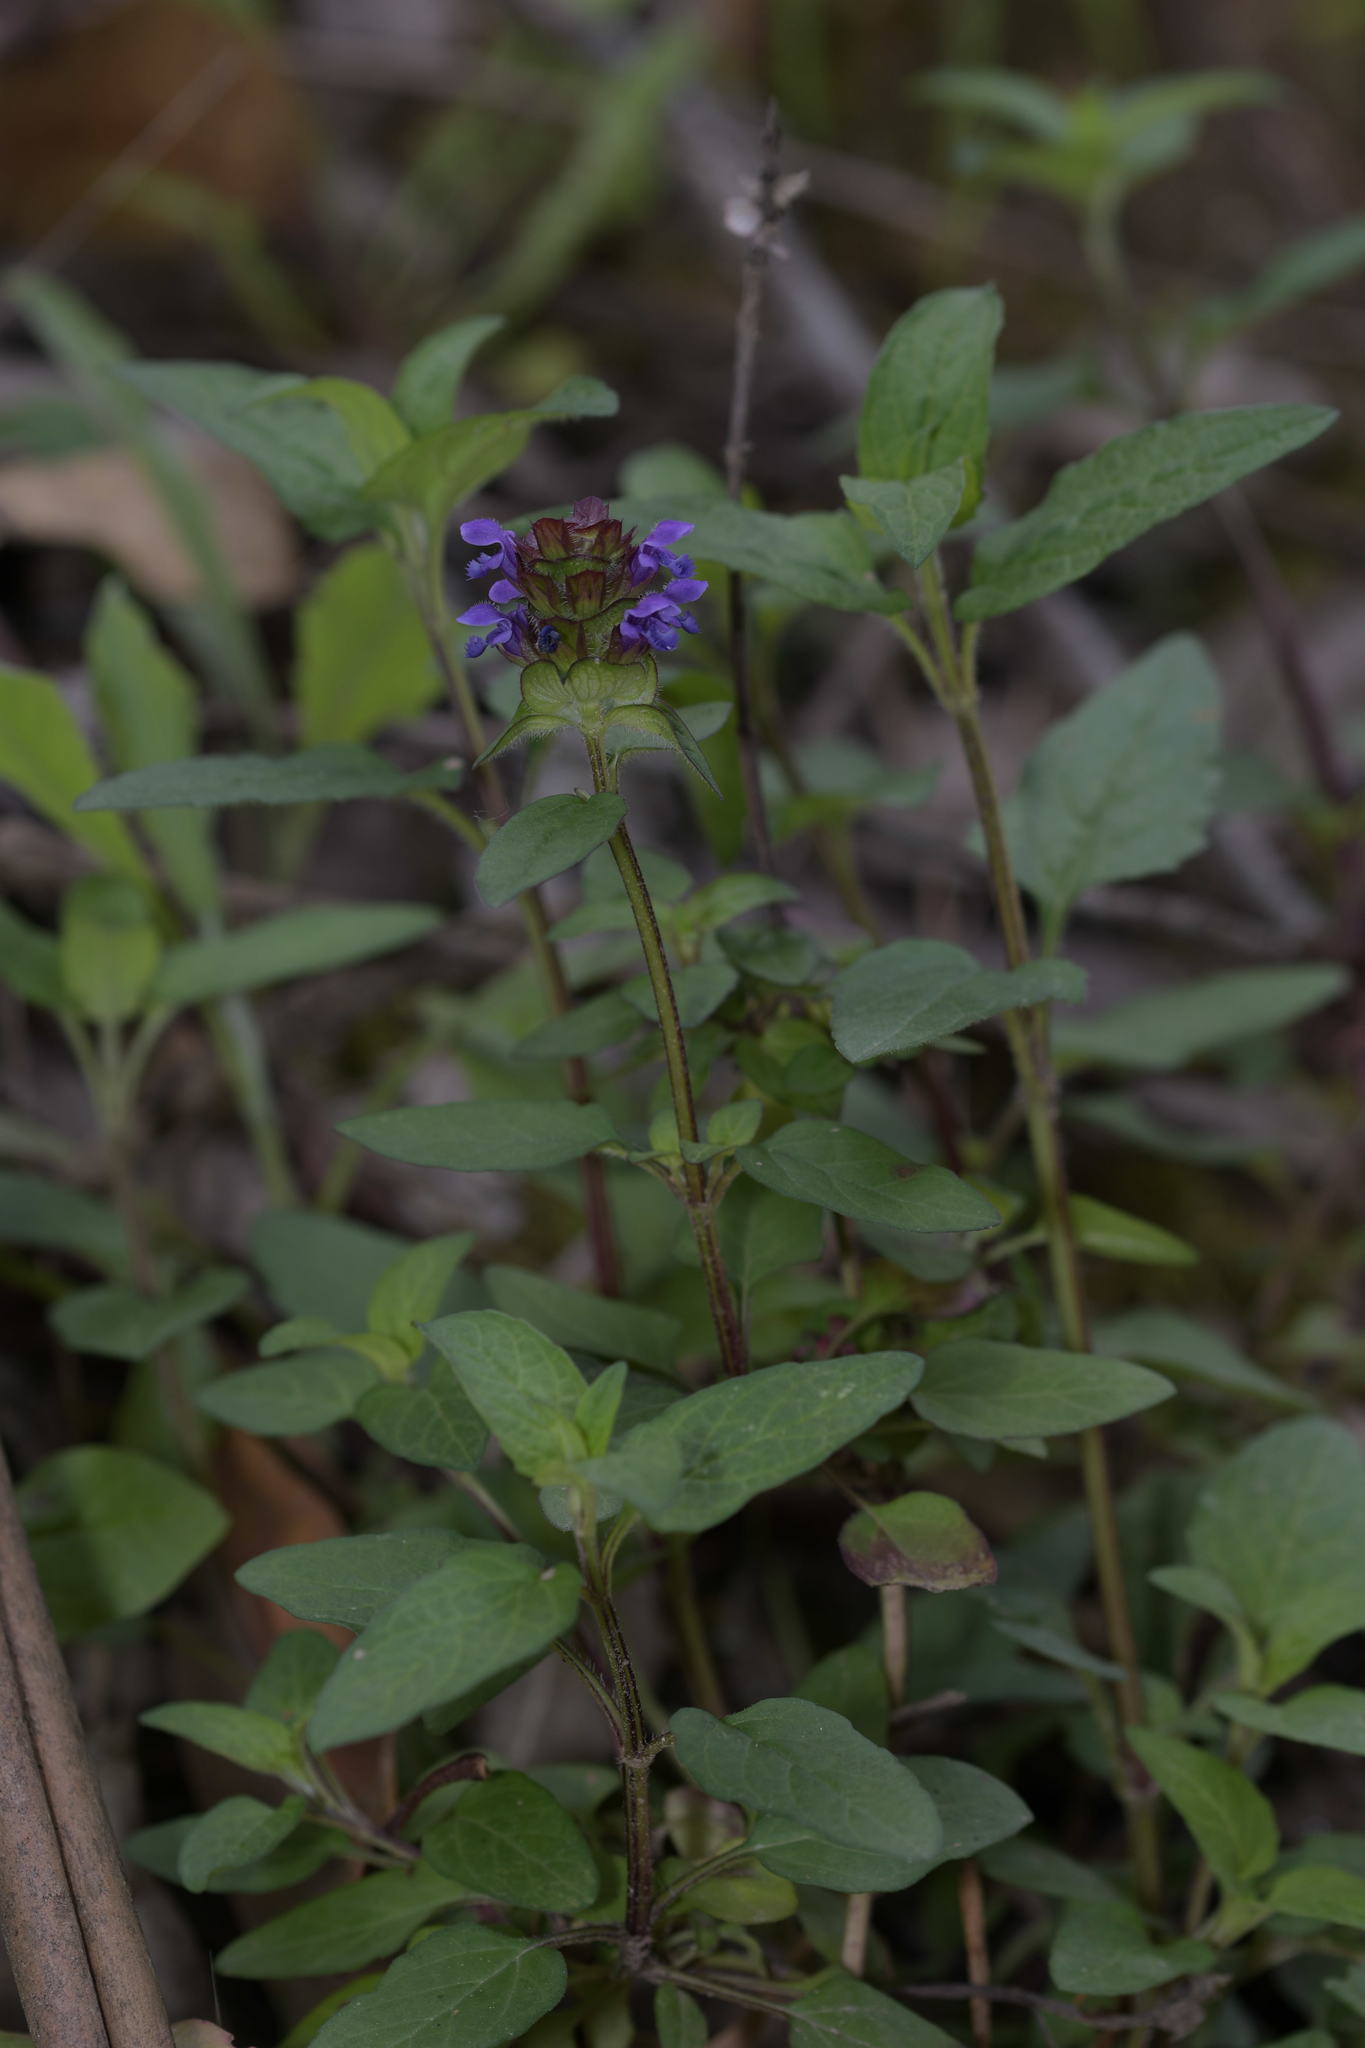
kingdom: Plantae
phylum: Tracheophyta
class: Magnoliopsida
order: Lamiales
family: Lamiaceae
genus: Prunella
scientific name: Prunella vulgaris
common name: Heal-all
